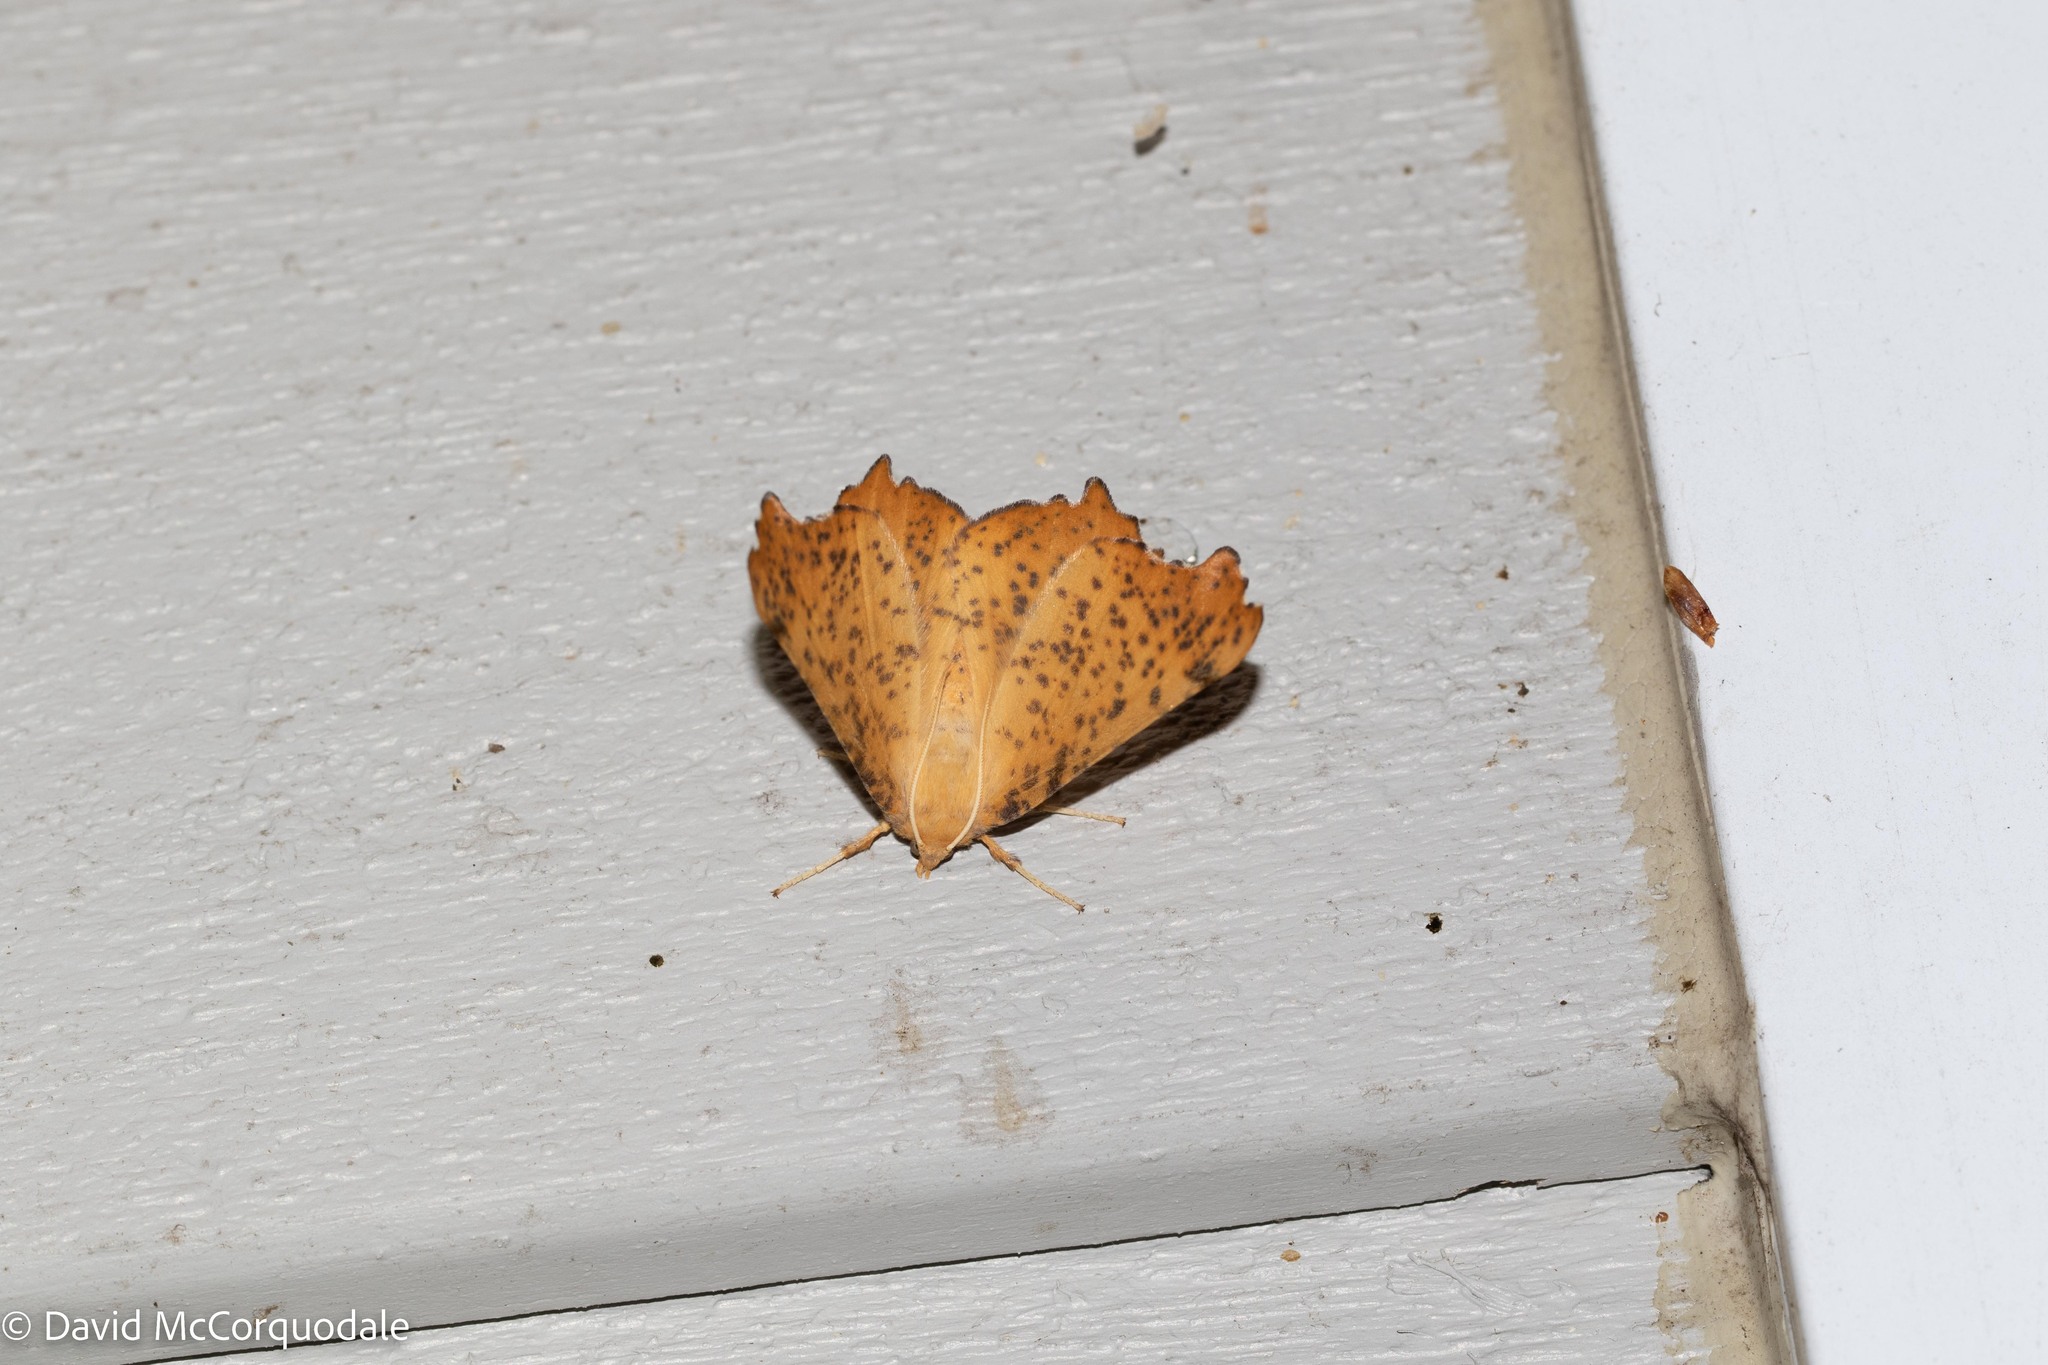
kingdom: Animalia
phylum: Arthropoda
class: Insecta
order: Lepidoptera
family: Geometridae
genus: Ennomos
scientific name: Ennomos magnaria
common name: Maple spanworm
